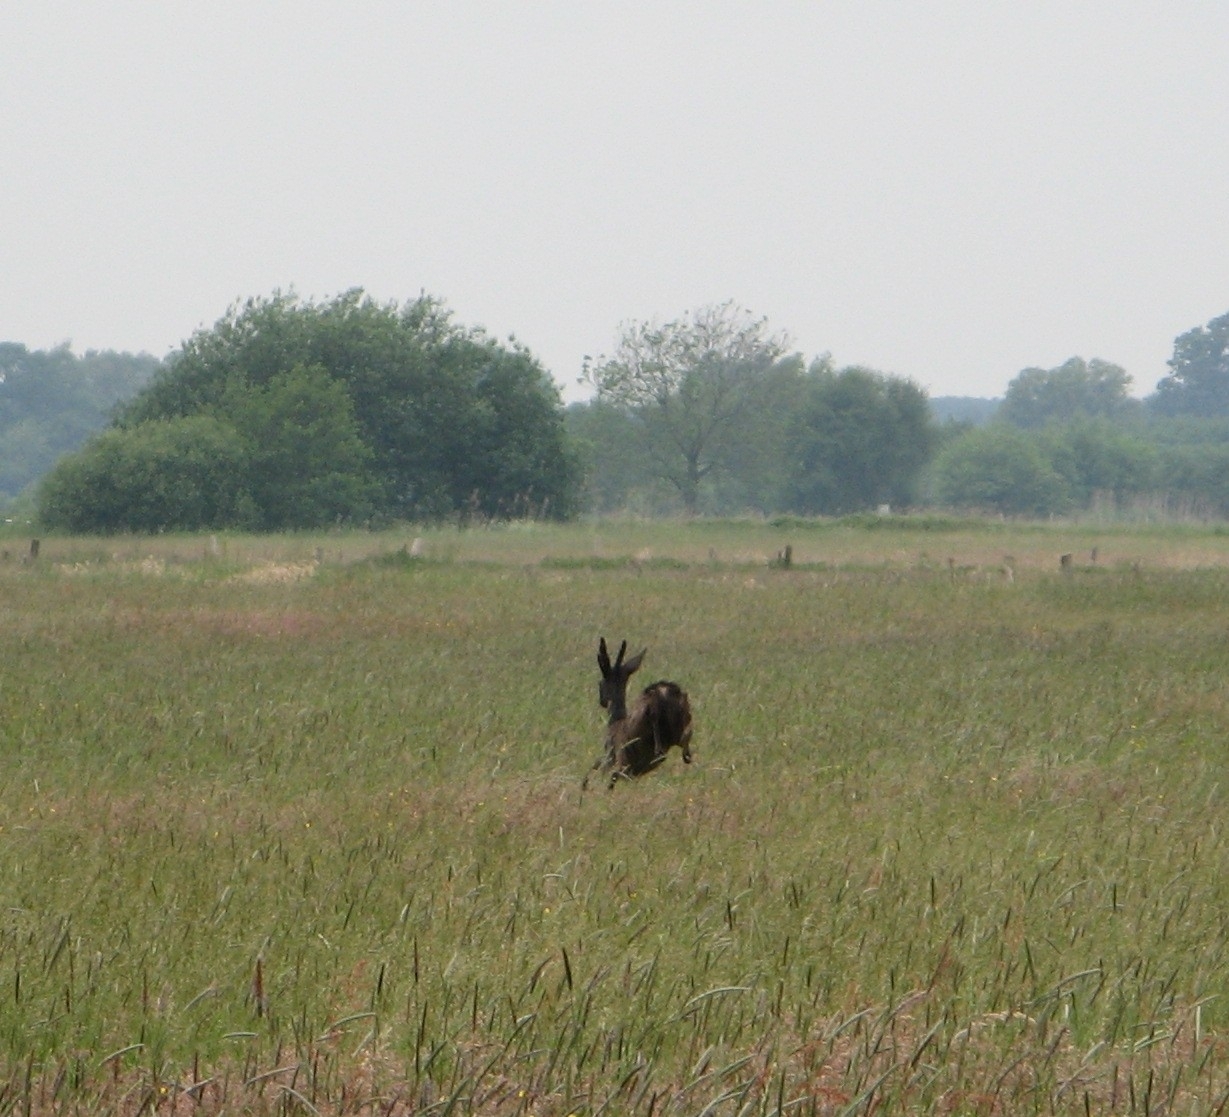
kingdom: Animalia
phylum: Chordata
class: Mammalia
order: Artiodactyla
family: Cervidae
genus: Capreolus
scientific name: Capreolus capreolus
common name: Western roe deer
